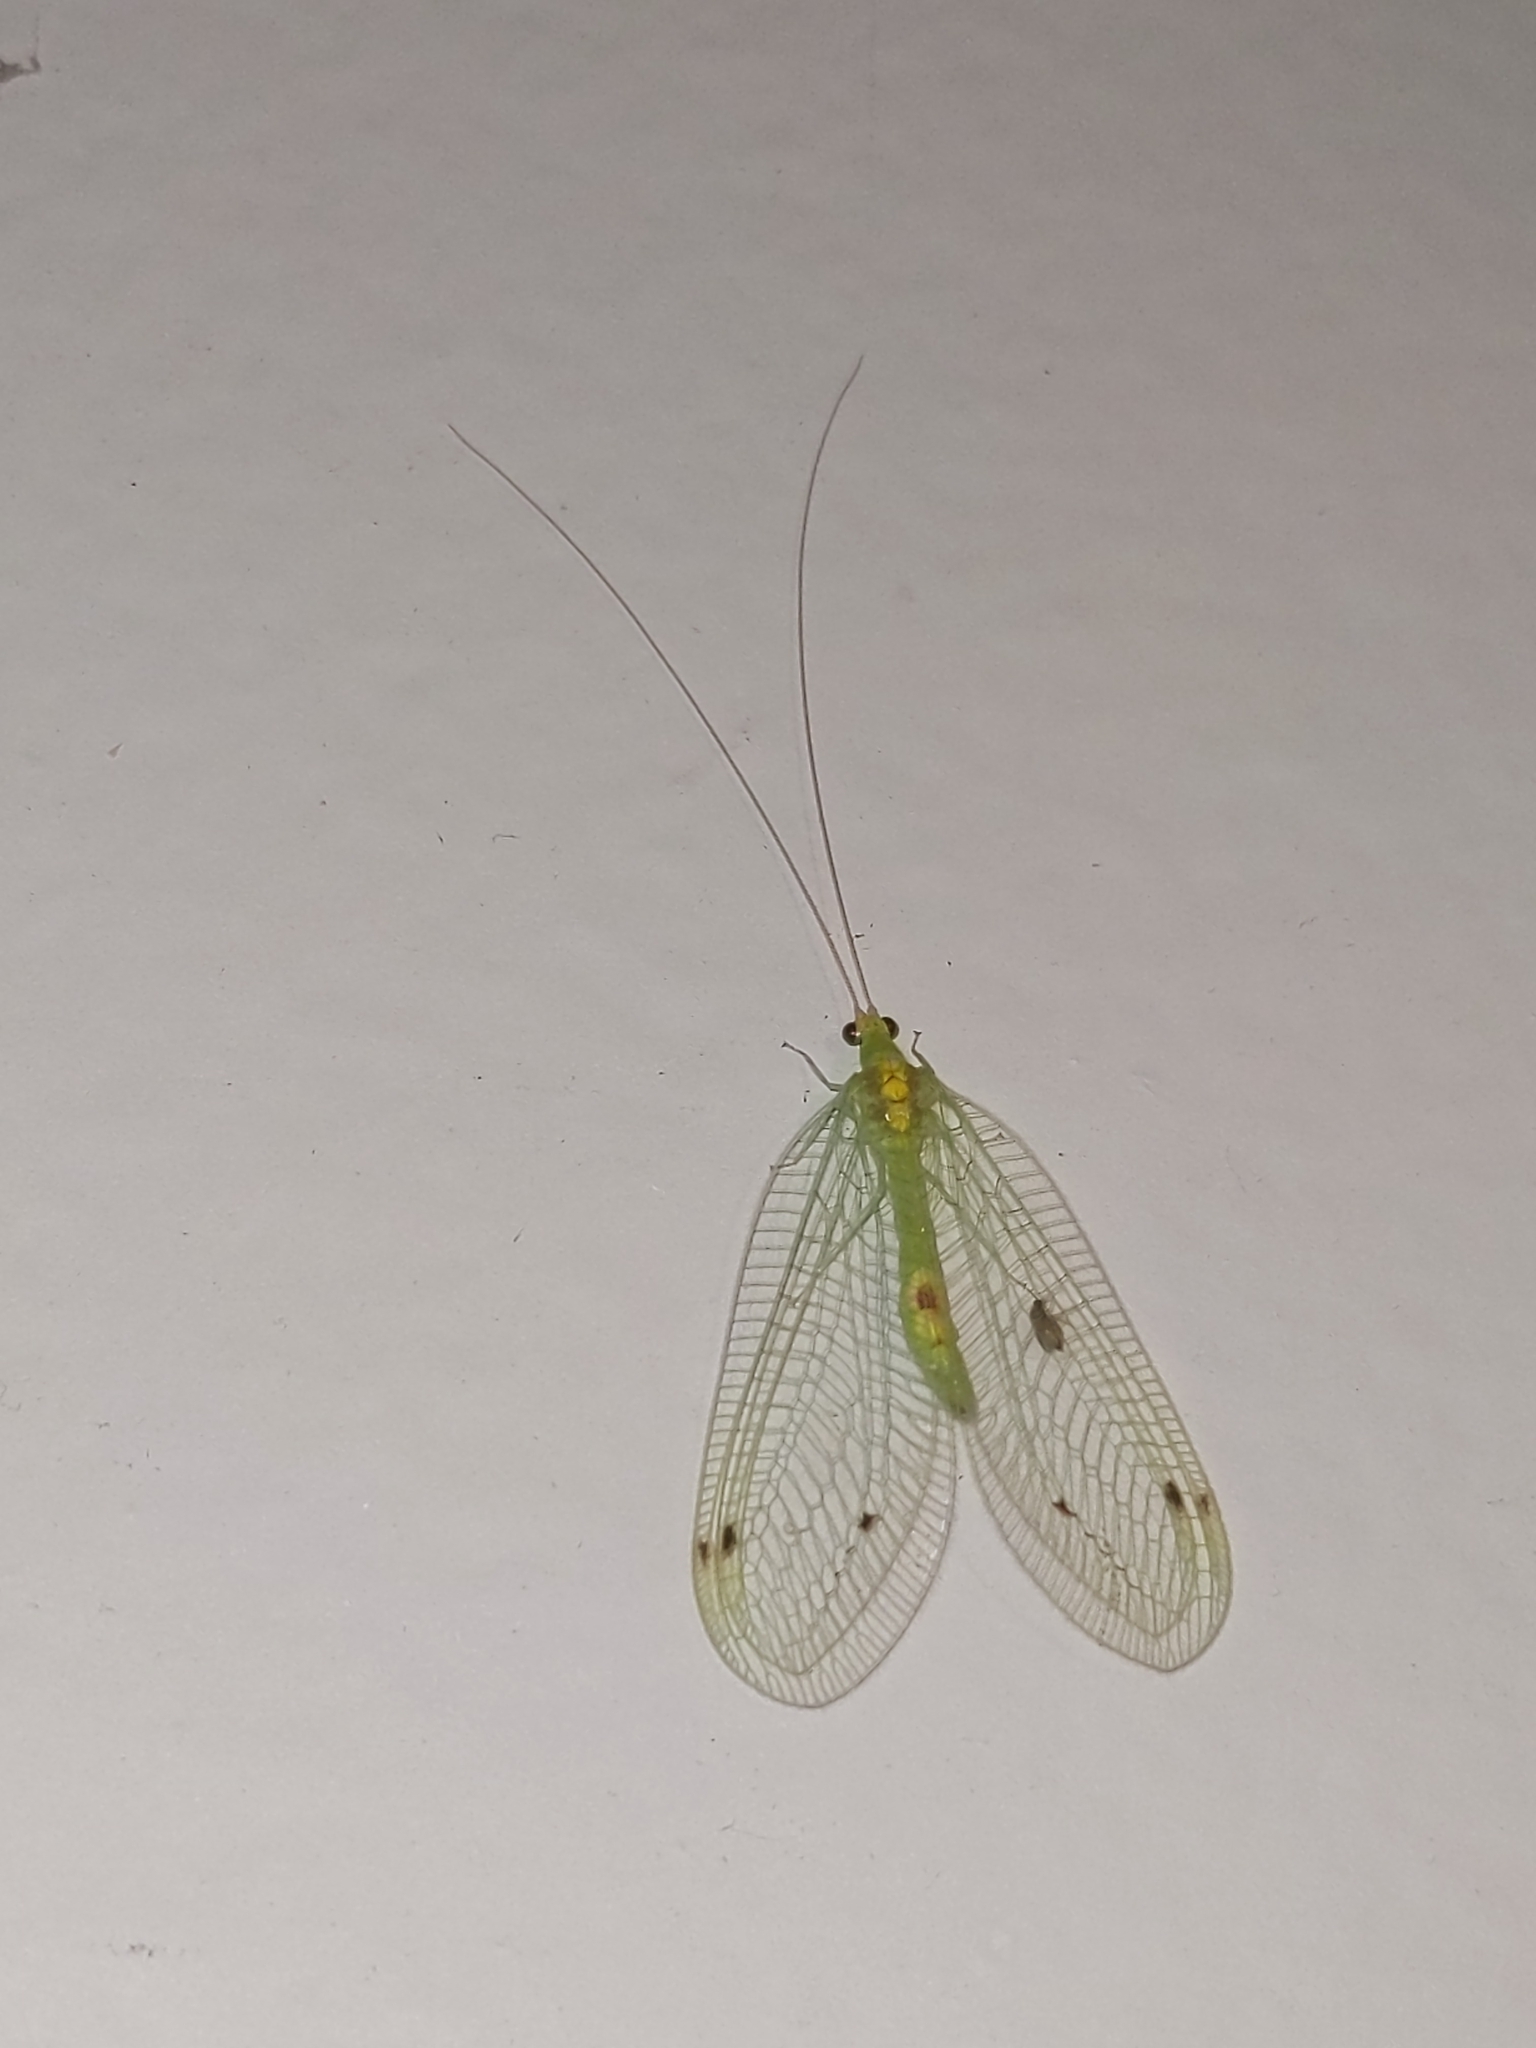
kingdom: Animalia
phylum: Arthropoda
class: Insecta
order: Neuroptera
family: Chrysopidae
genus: Leucochrysa
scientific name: Leucochrysa insularis
